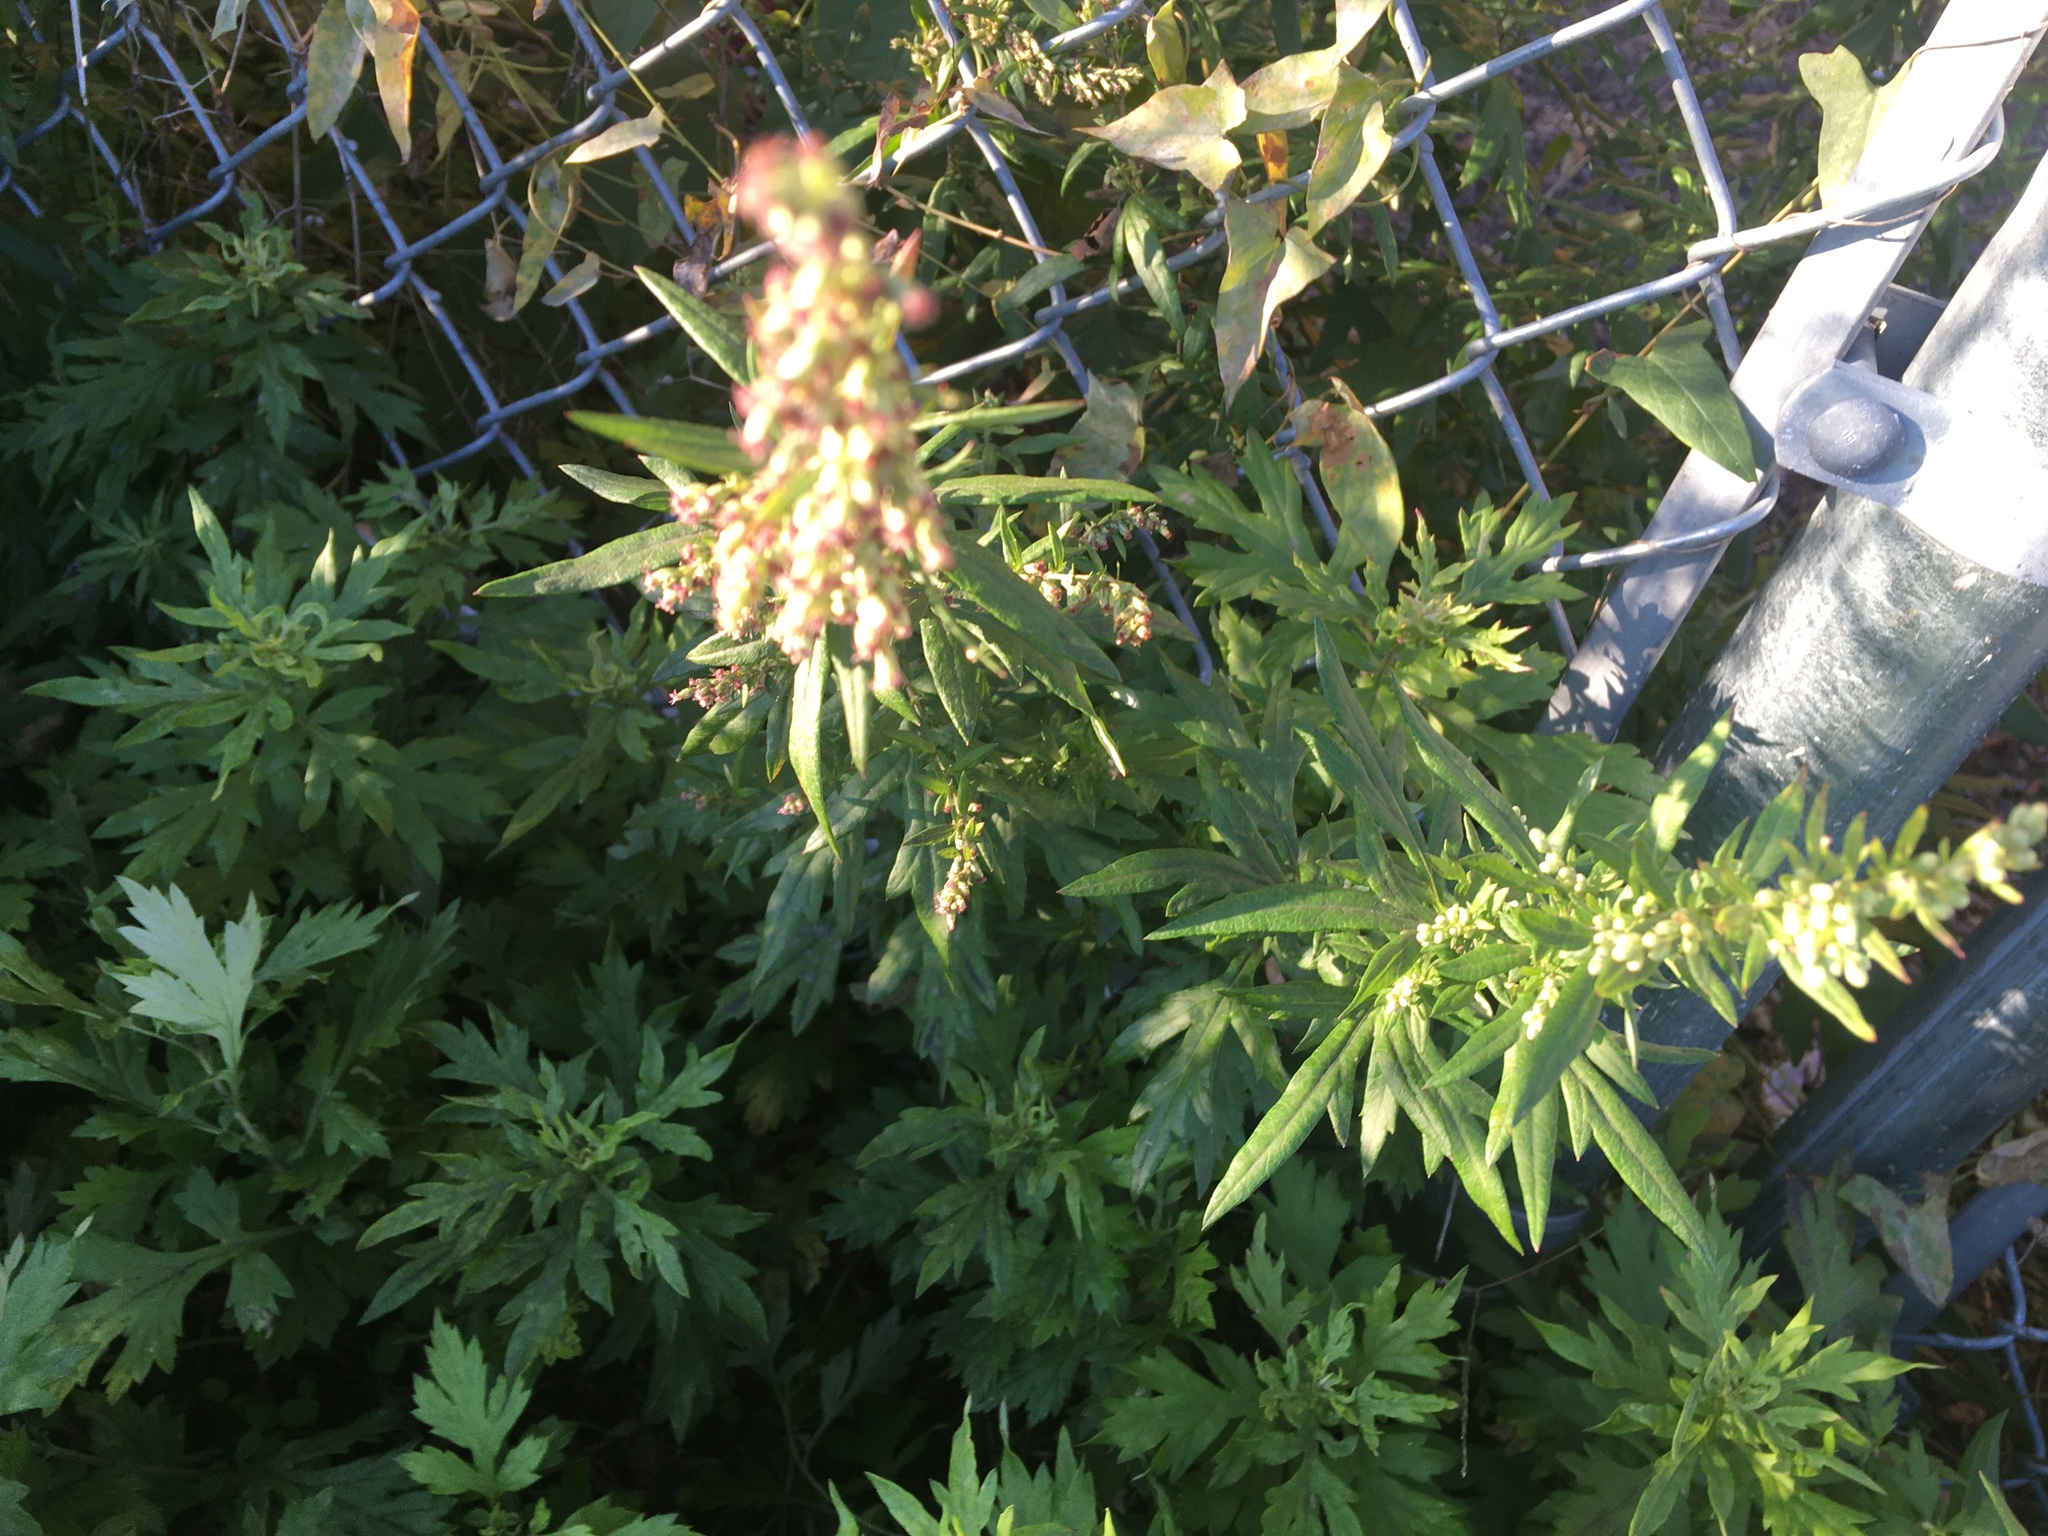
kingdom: Plantae
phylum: Tracheophyta
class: Magnoliopsida
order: Asterales
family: Asteraceae
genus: Artemisia
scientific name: Artemisia vulgaris
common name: Mugwort
